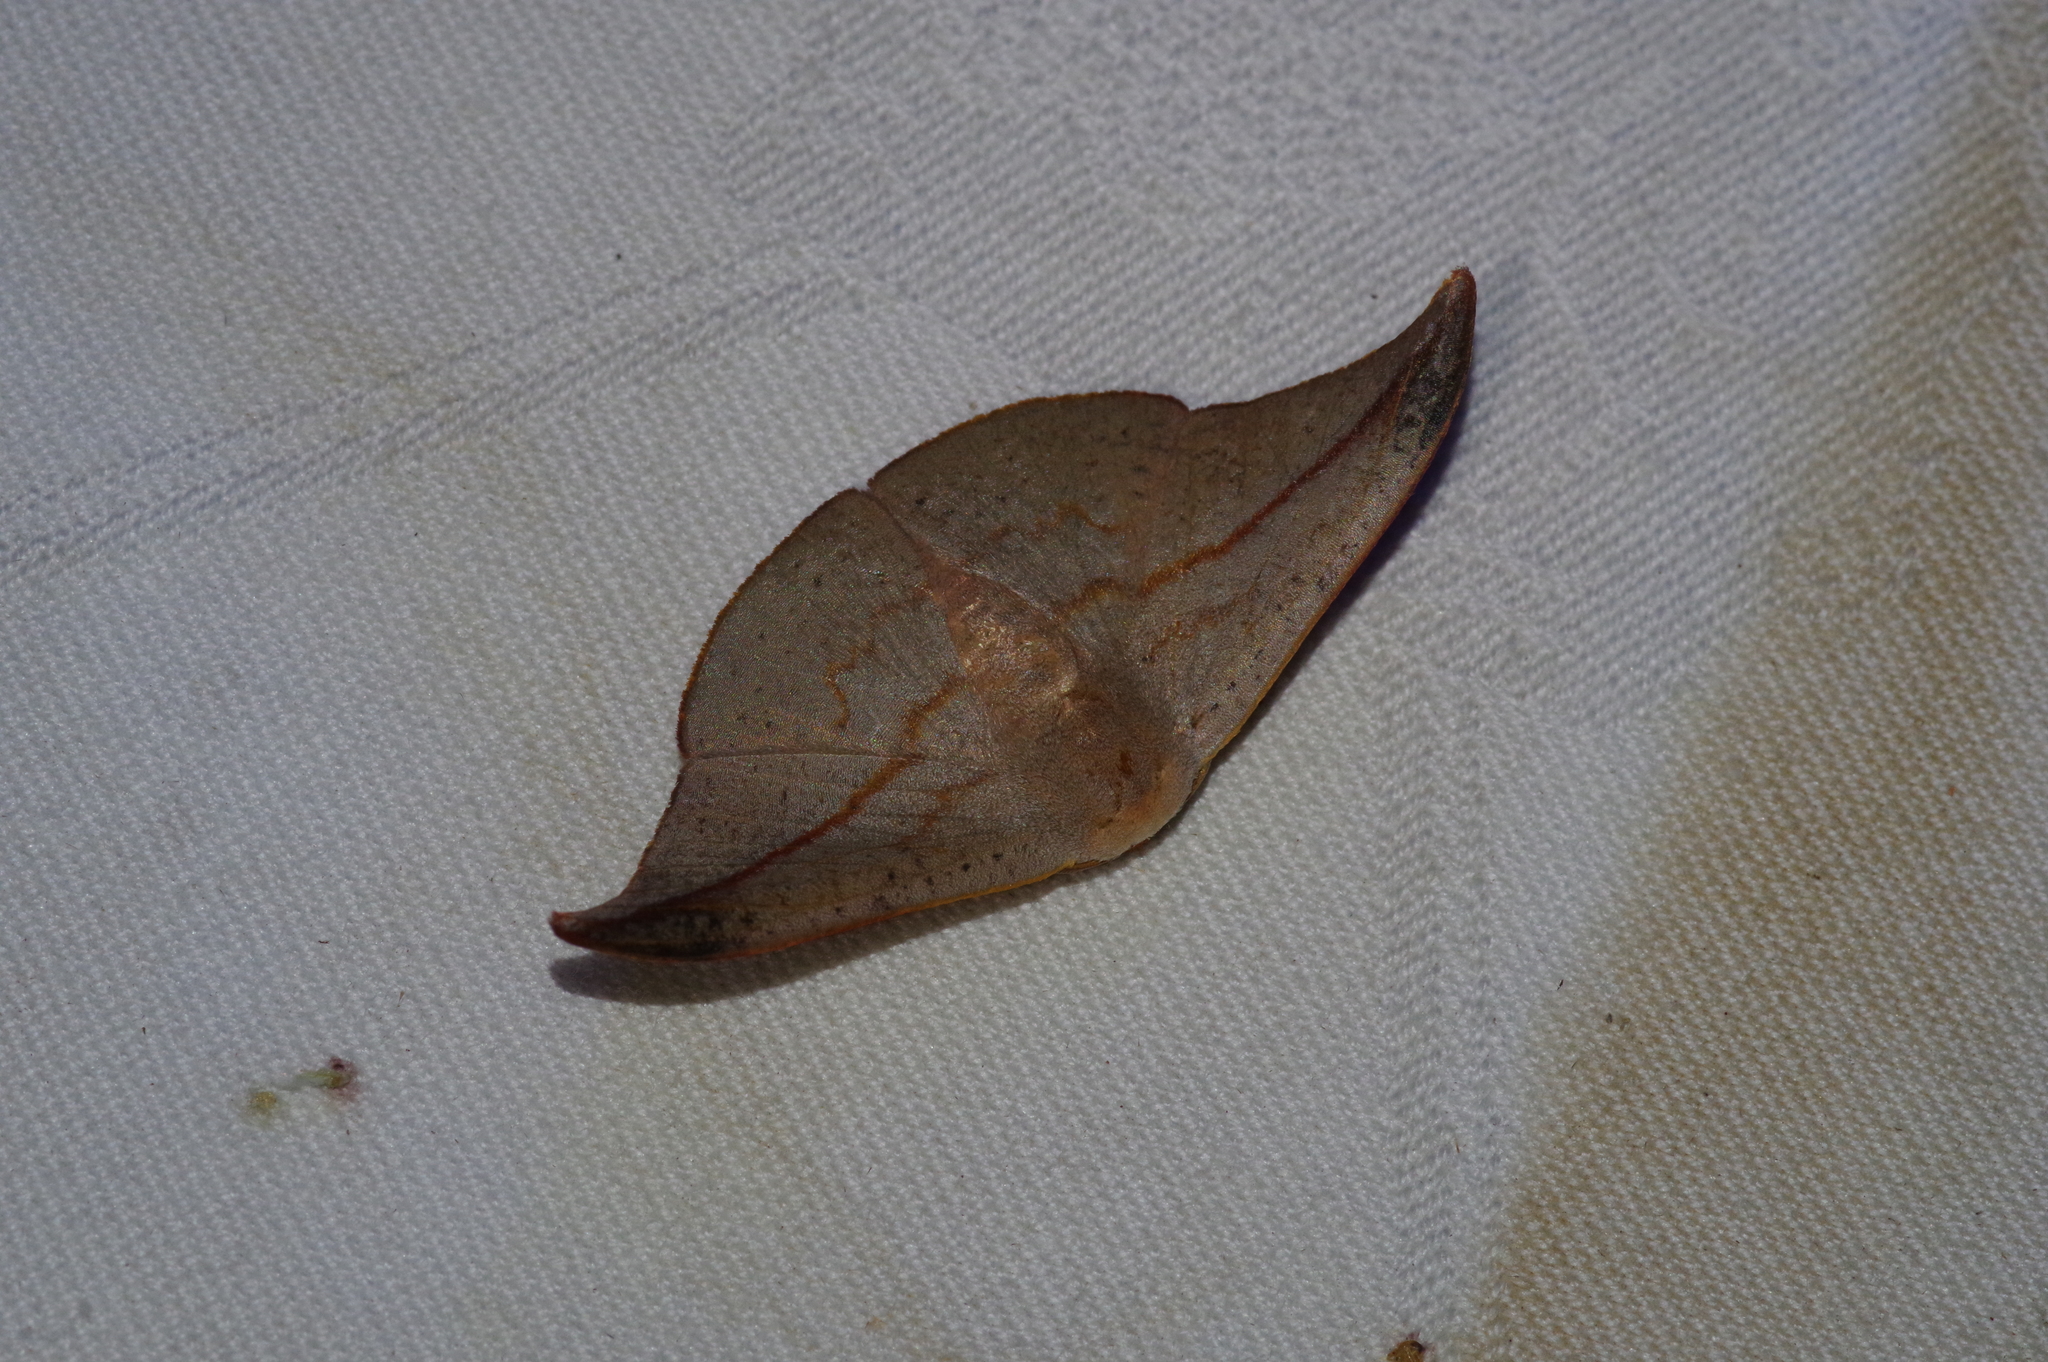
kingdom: Animalia
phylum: Arthropoda
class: Insecta
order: Lepidoptera
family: Drepanidae
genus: Oreta
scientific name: Oreta insignis
